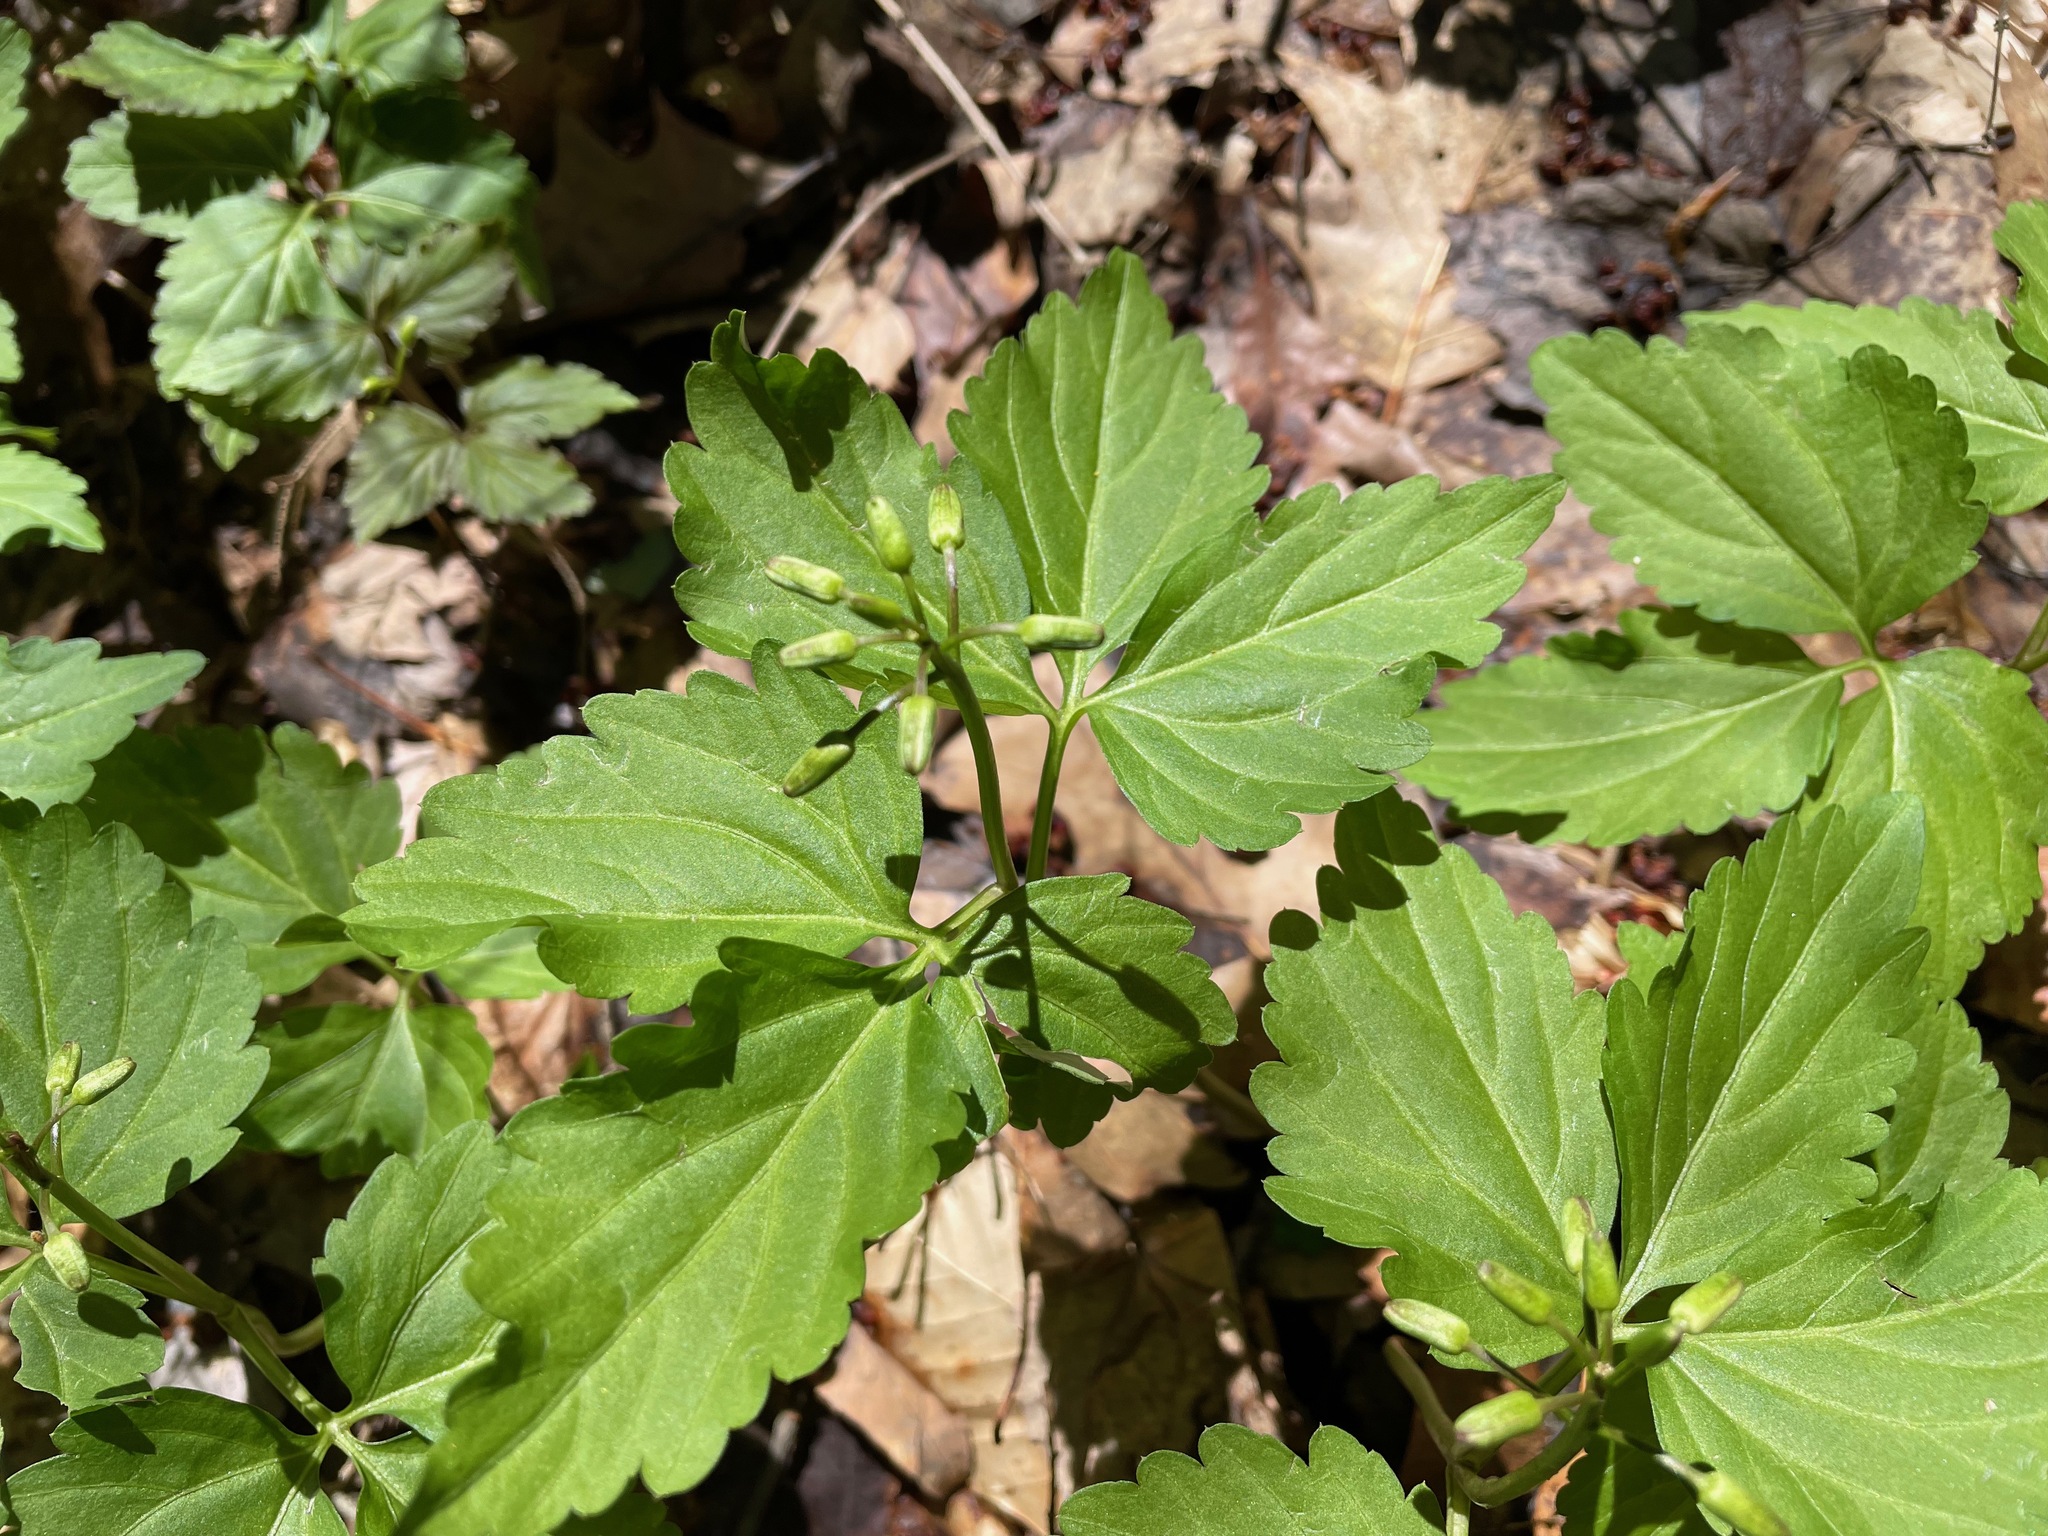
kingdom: Plantae
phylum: Tracheophyta
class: Magnoliopsida
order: Brassicales
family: Brassicaceae
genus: Cardamine
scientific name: Cardamine diphylla
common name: Broad-leaved toothwort
